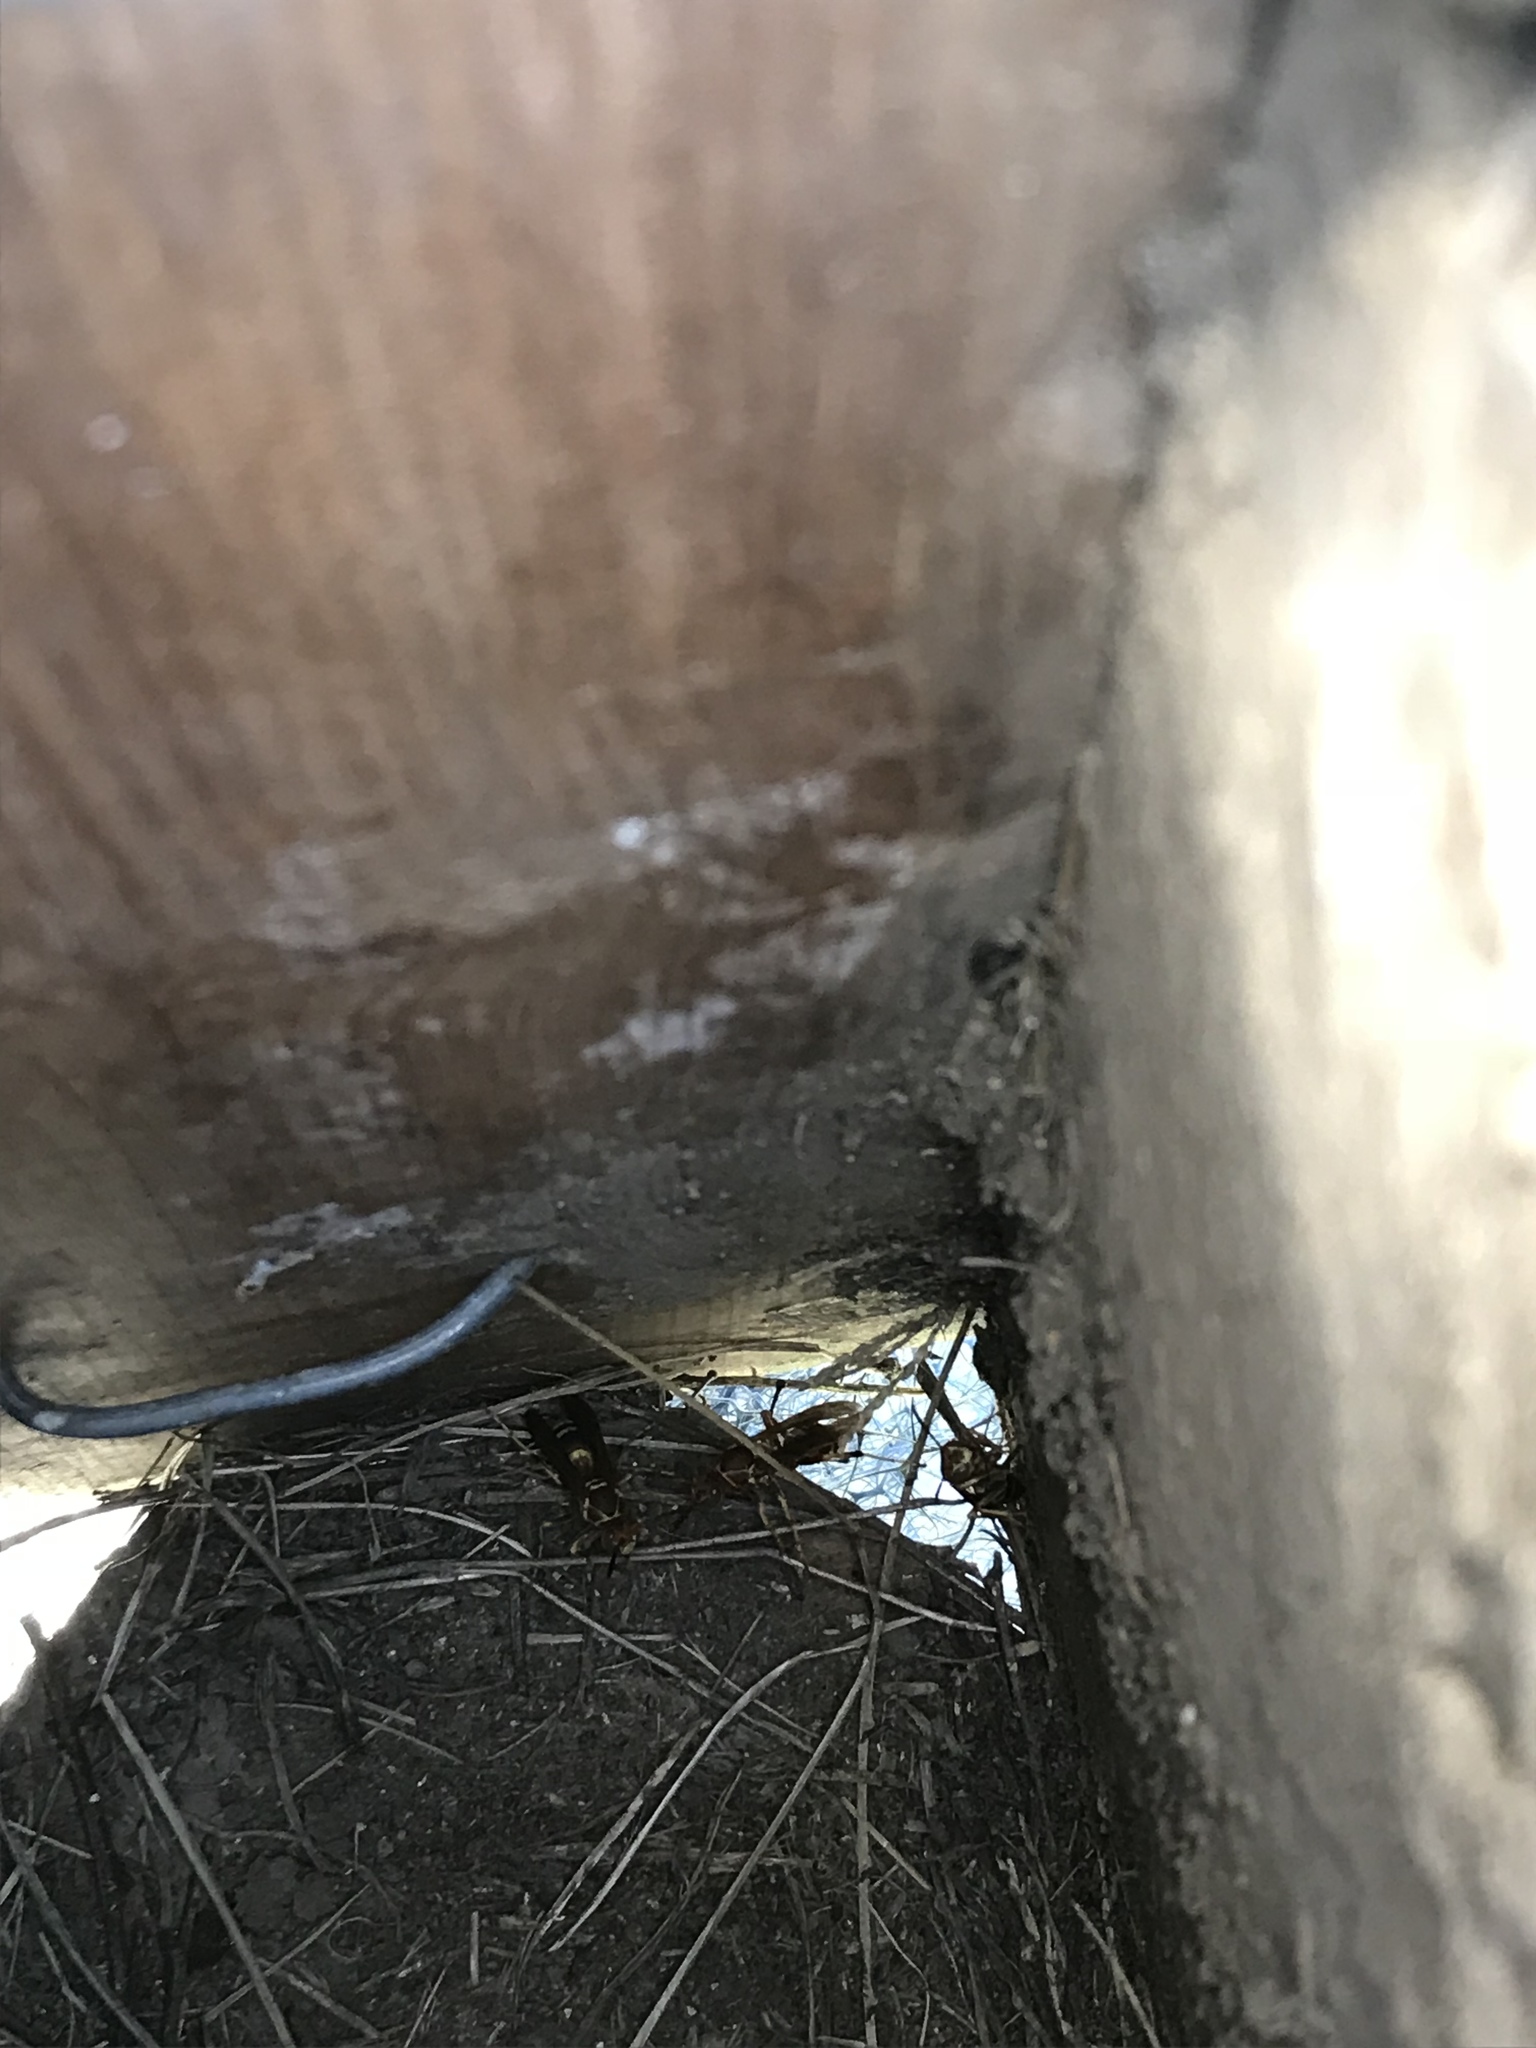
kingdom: Animalia
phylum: Arthropoda
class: Insecta
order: Hymenoptera
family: Eumenidae
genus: Polistes
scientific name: Polistes dorsalis
